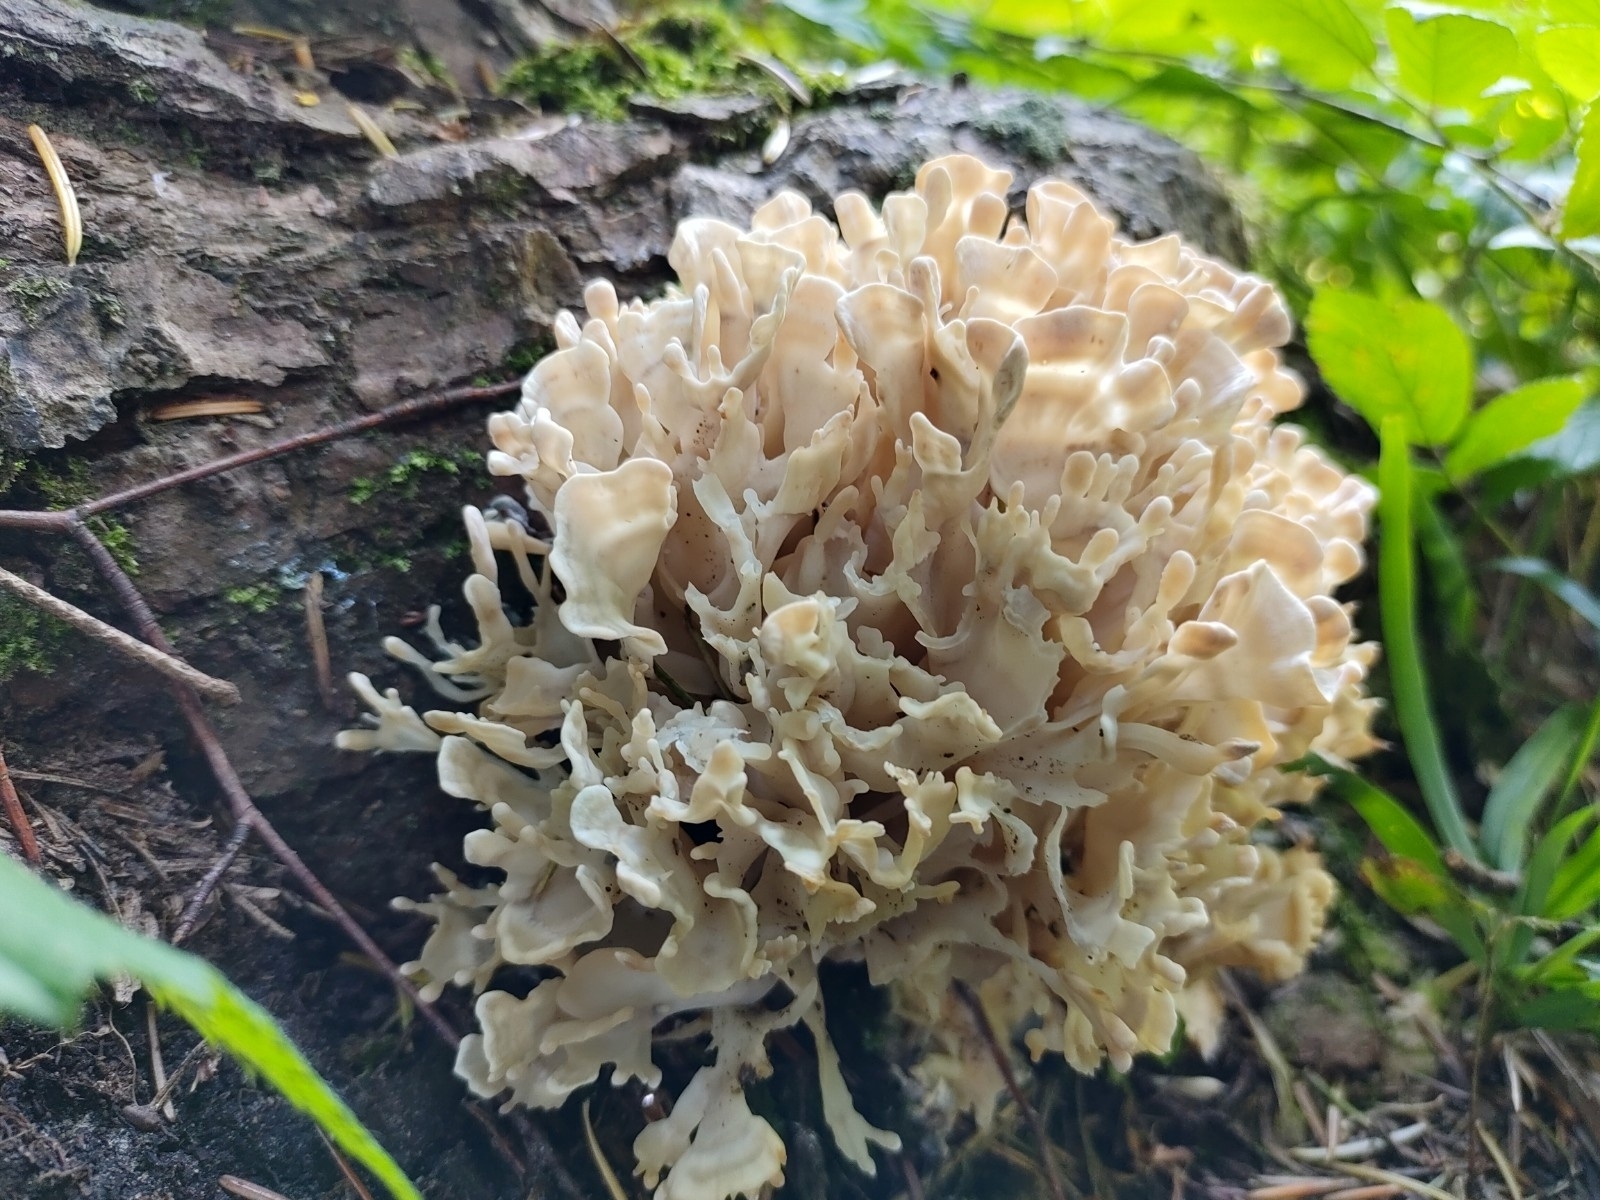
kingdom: Fungi
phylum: Basidiomycota
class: Agaricomycetes
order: Polyporales
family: Sparassidaceae
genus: Sparassis
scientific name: Sparassis brevipes
